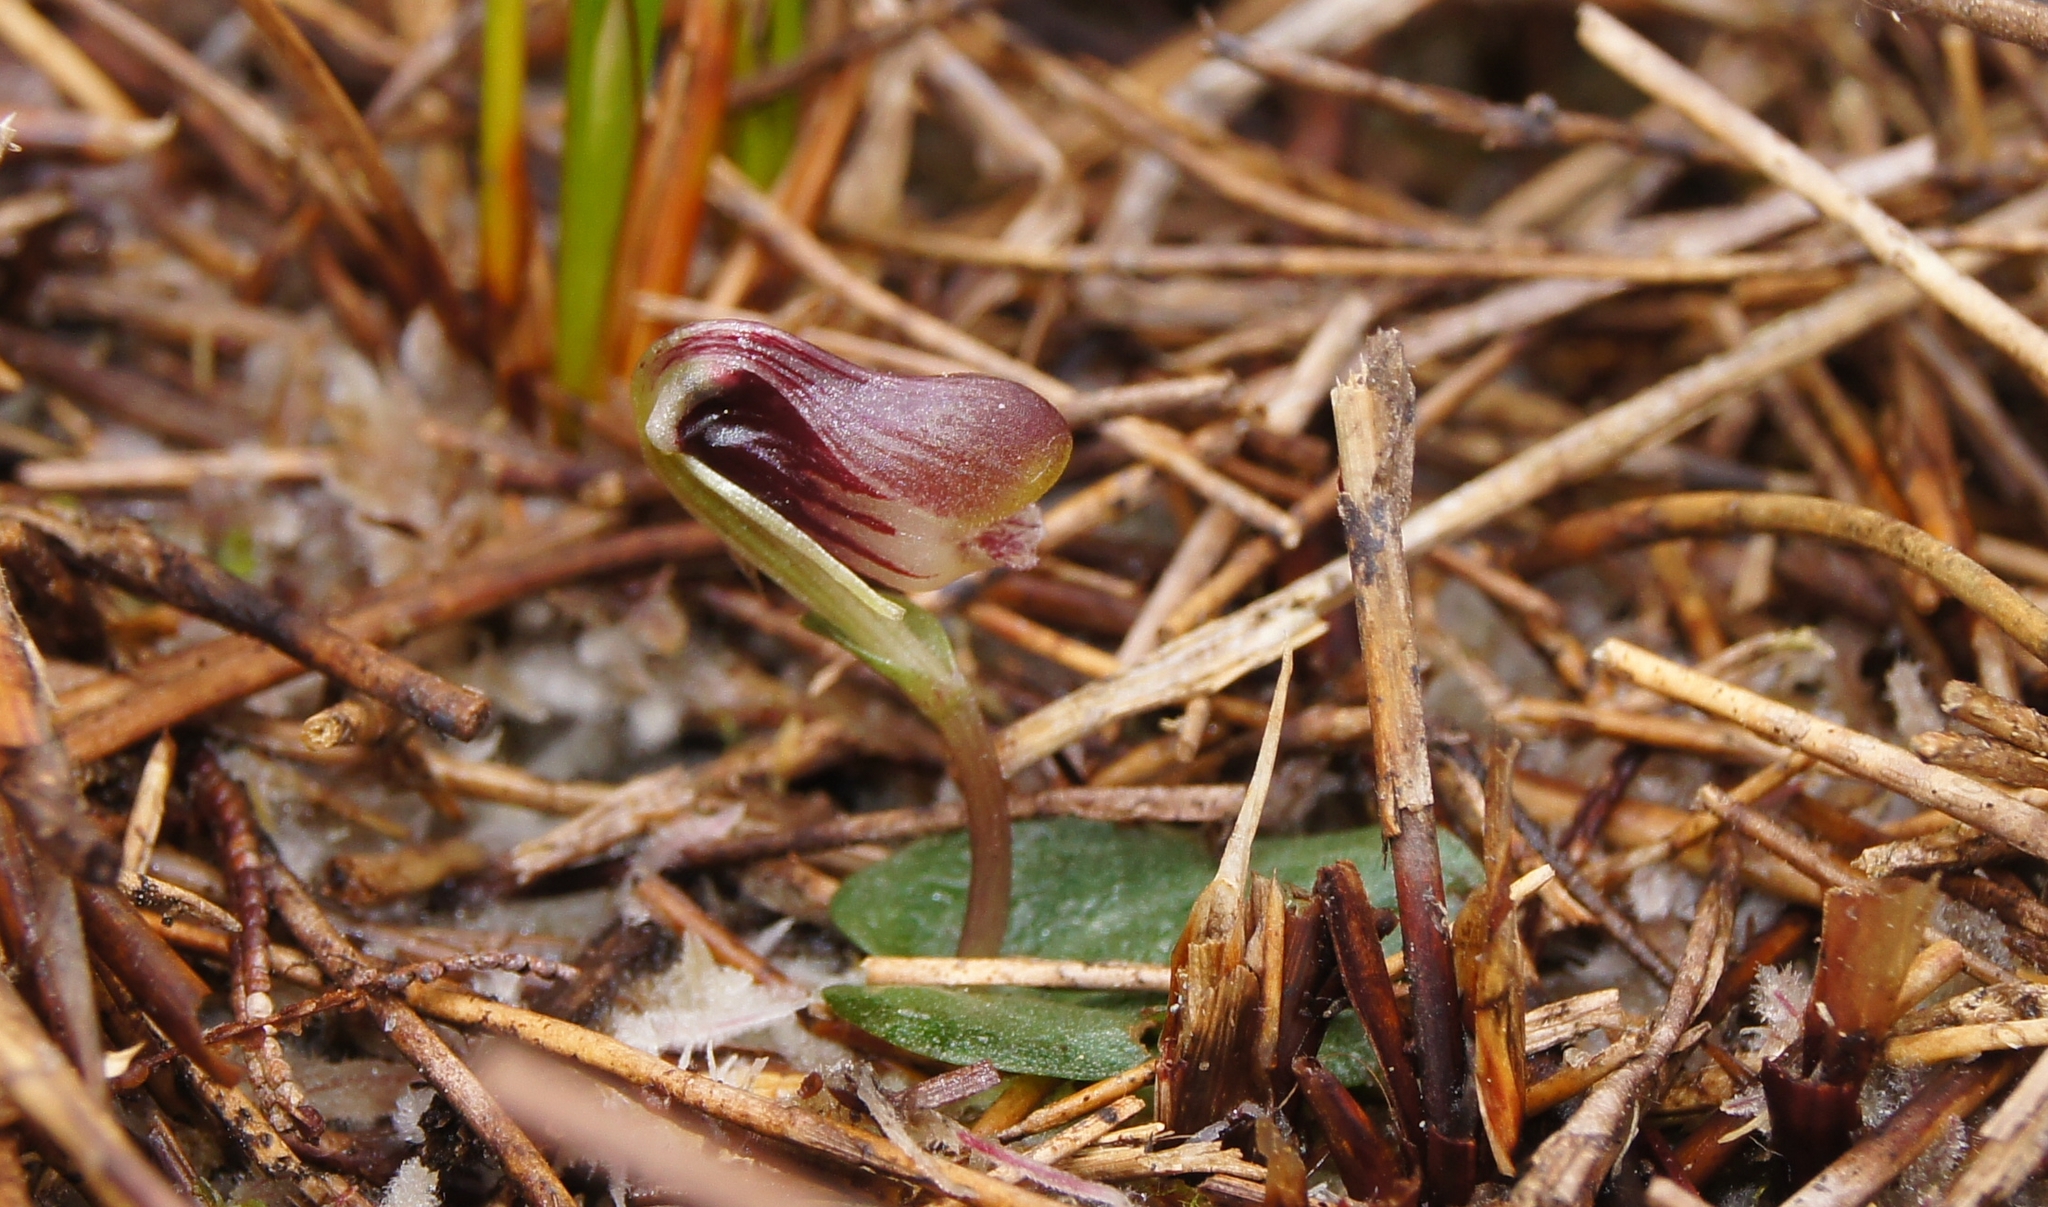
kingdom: Plantae
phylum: Tracheophyta
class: Liliopsida
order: Asparagales
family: Orchidaceae
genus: Corybas
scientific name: Corybas carsei
